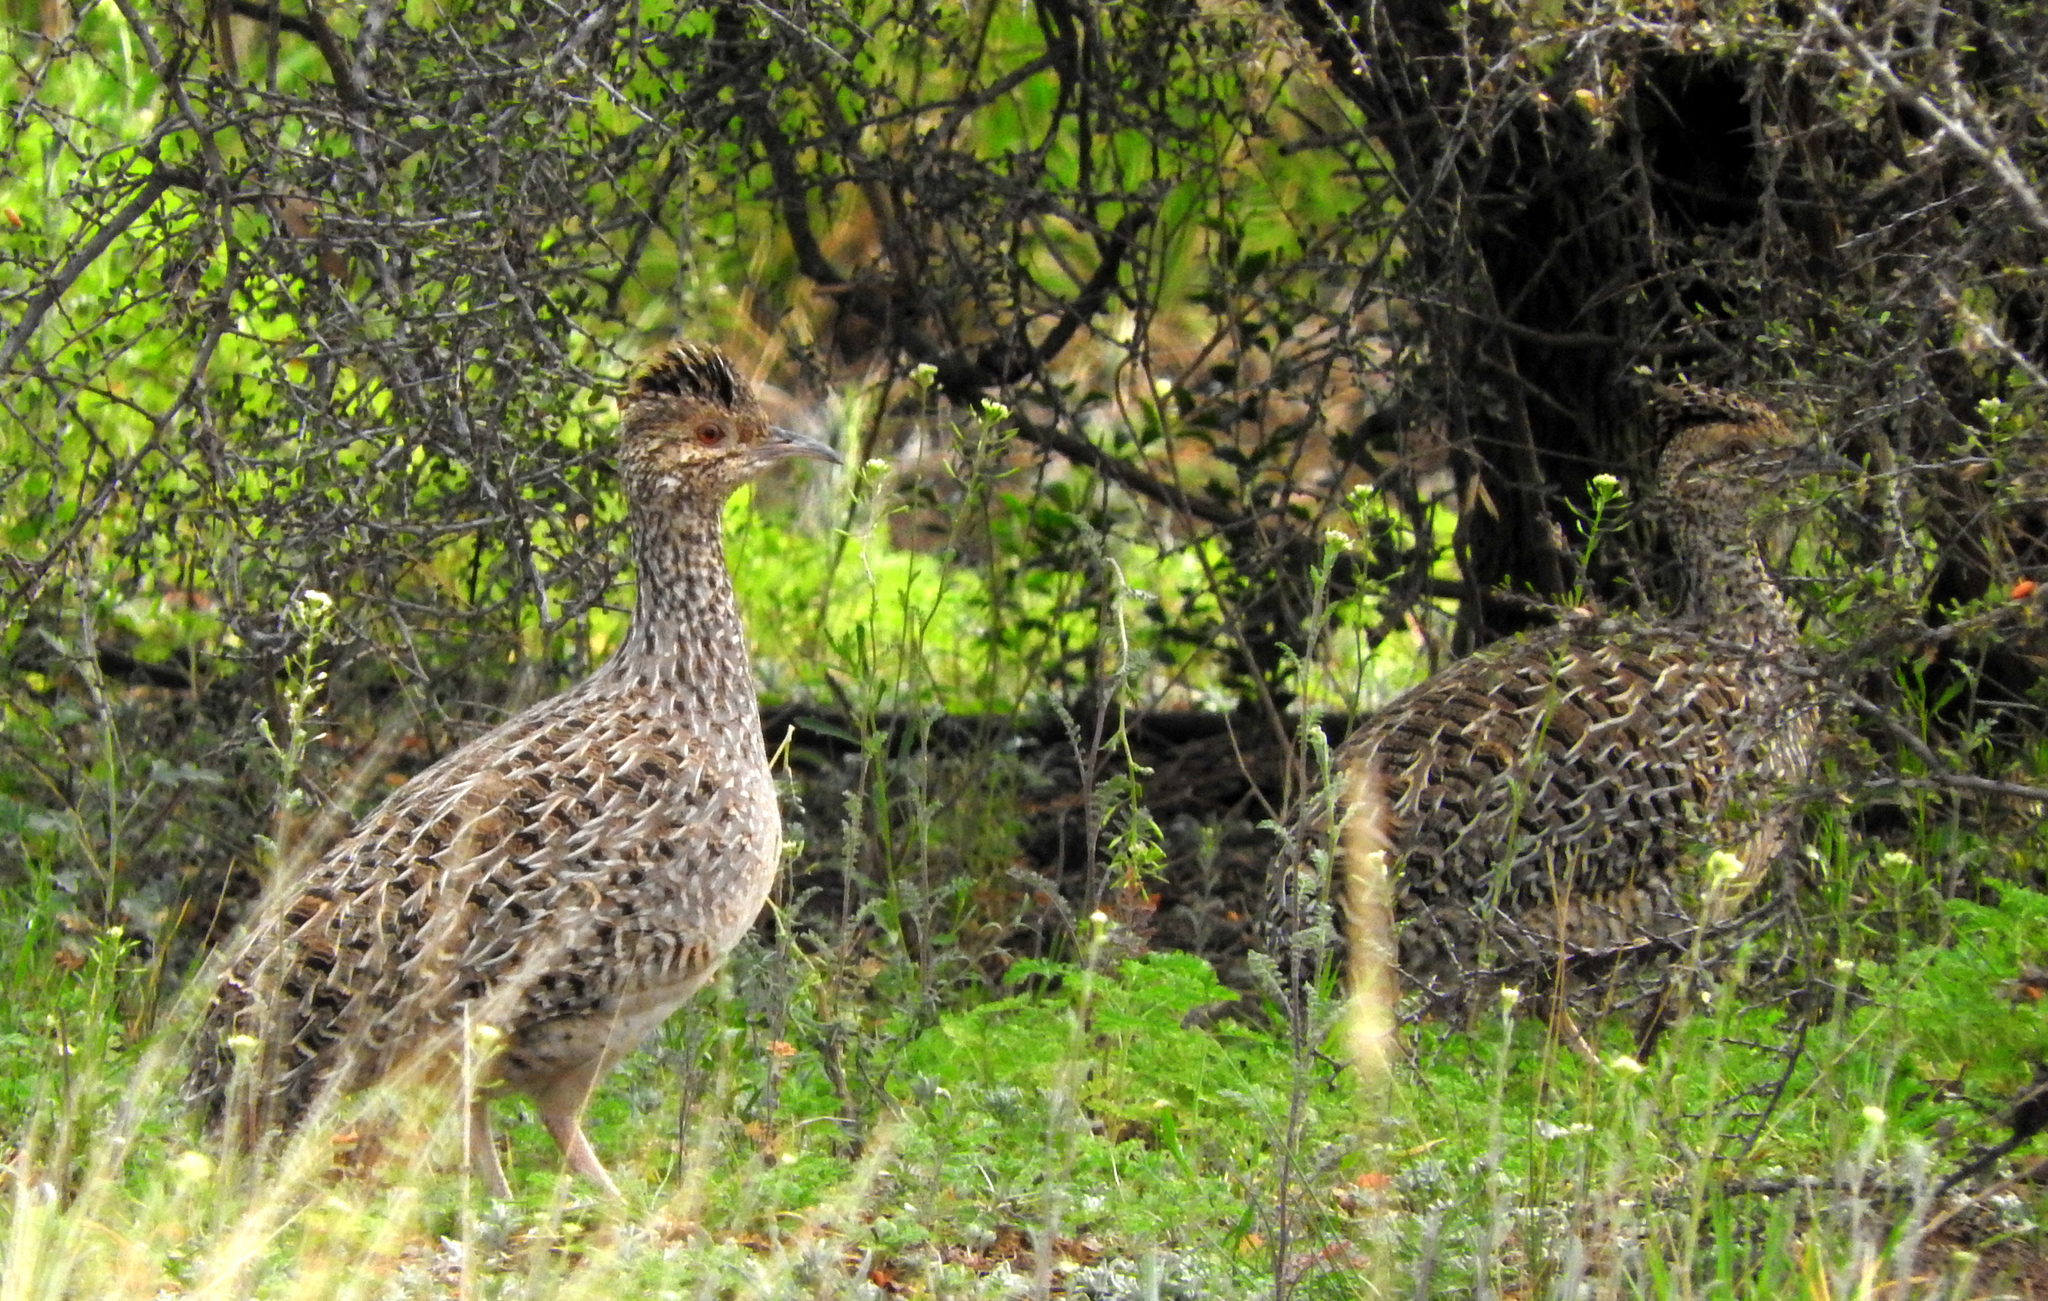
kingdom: Animalia
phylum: Chordata
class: Aves
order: Tinamiformes
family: Tinamidae
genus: Nothoprocta
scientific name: Nothoprocta cinerascens
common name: Brushland tinamou
